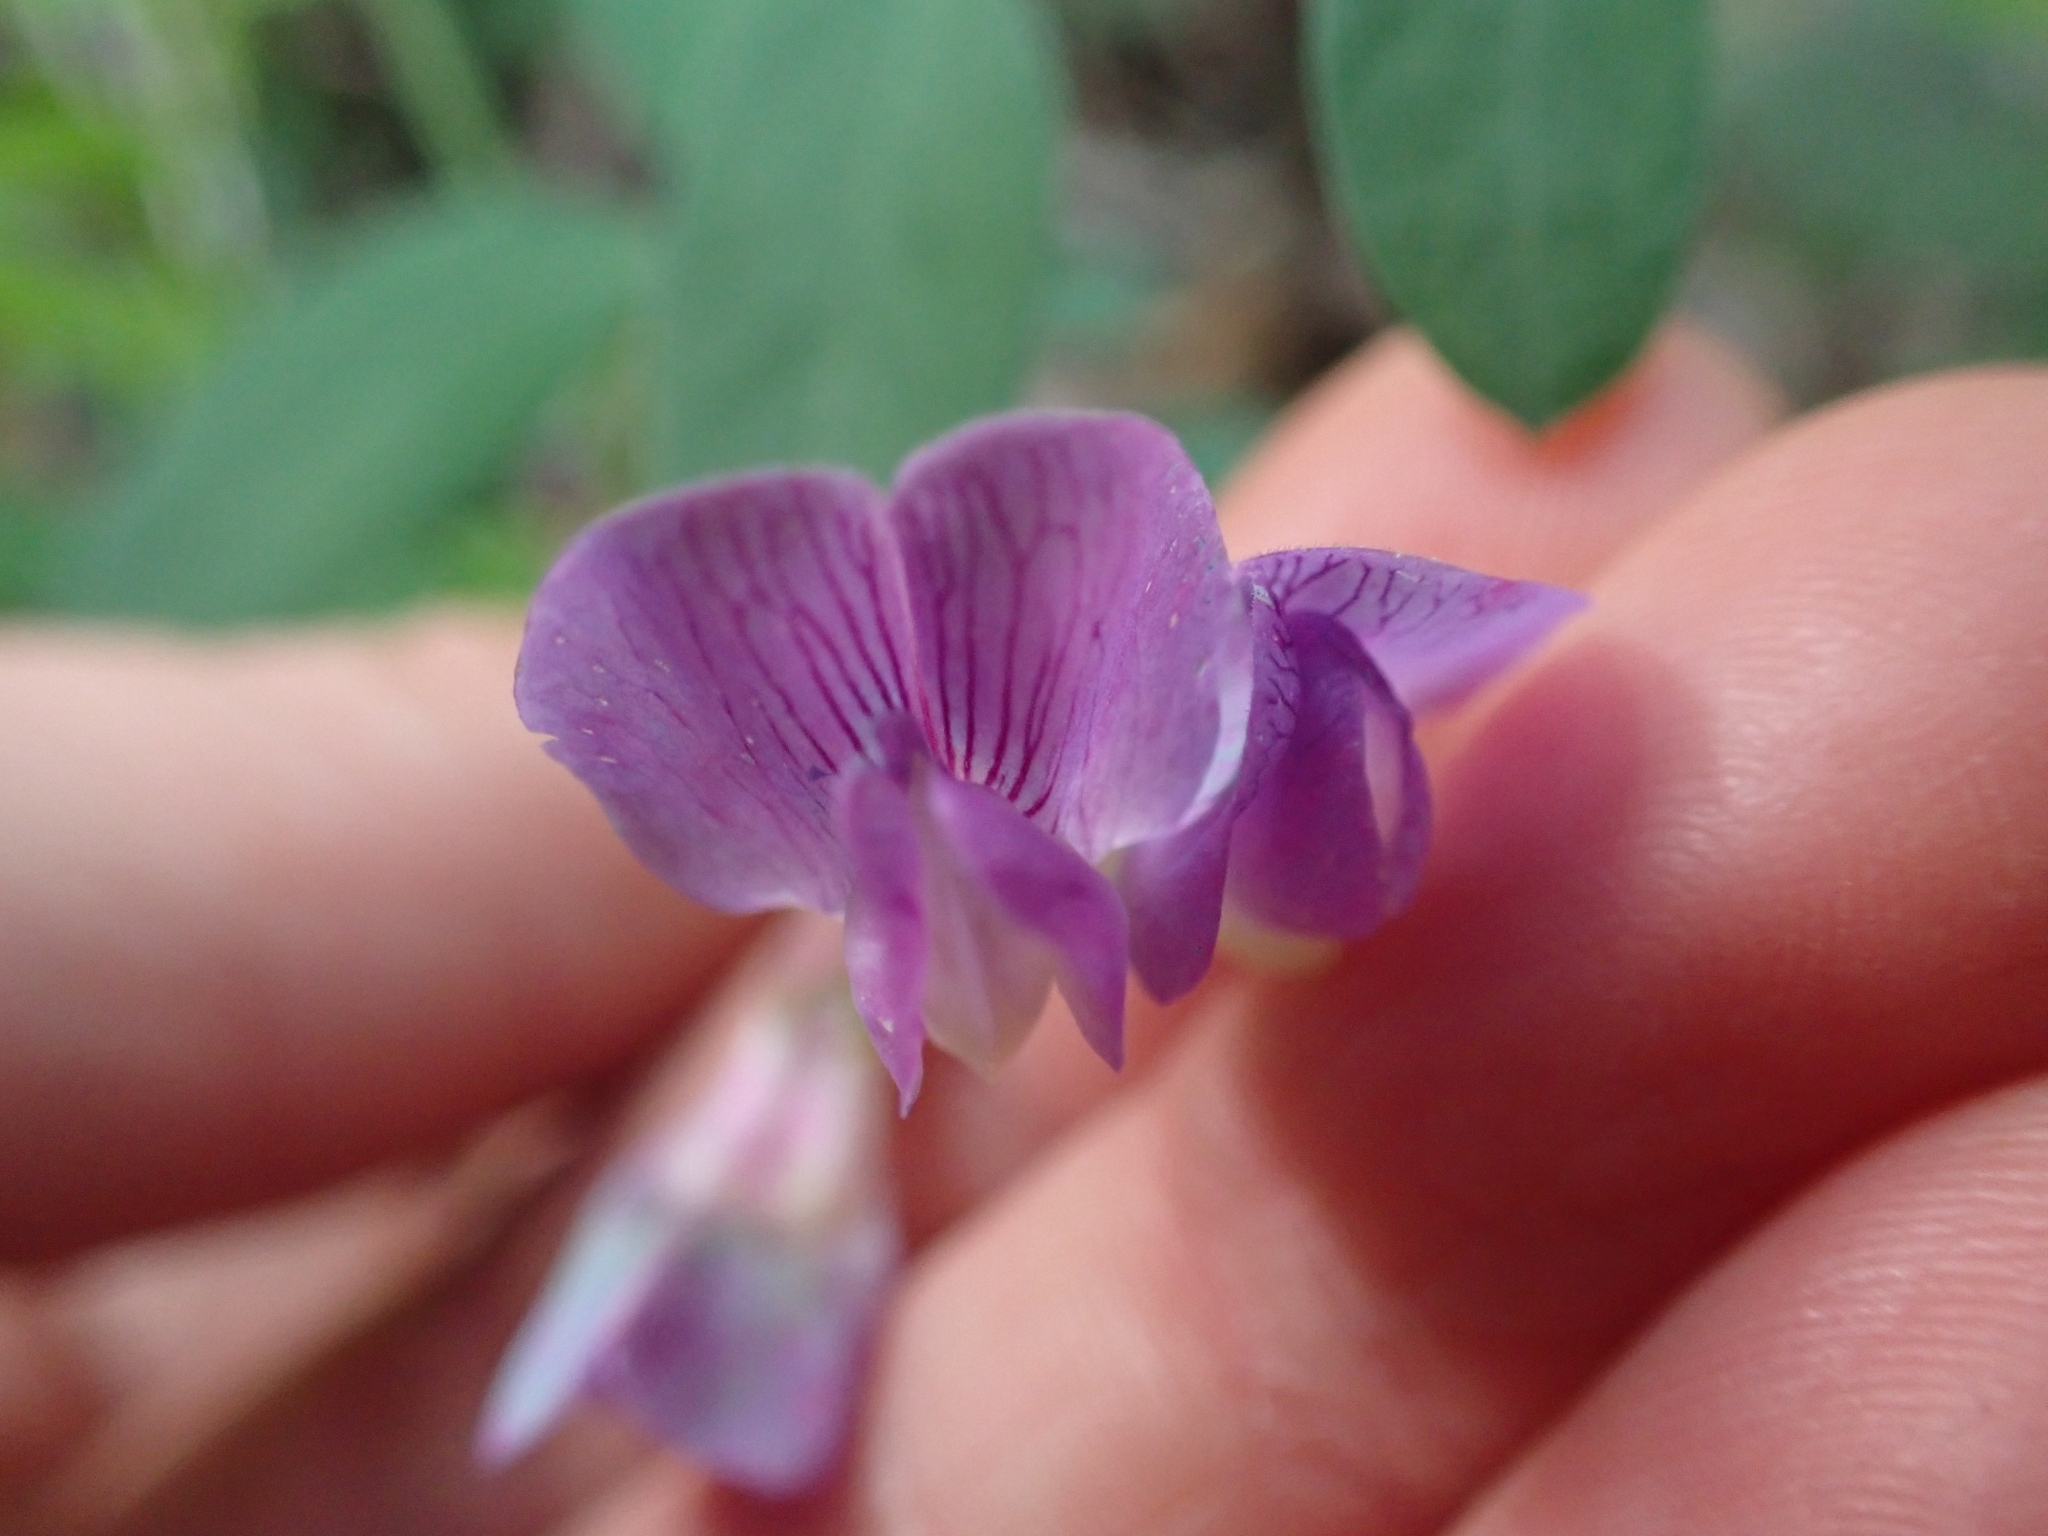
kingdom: Plantae
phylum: Tracheophyta
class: Magnoliopsida
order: Fabales
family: Fabaceae
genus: Lathyrus
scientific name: Lathyrus nevadensis
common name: Sierra nevada peavine
